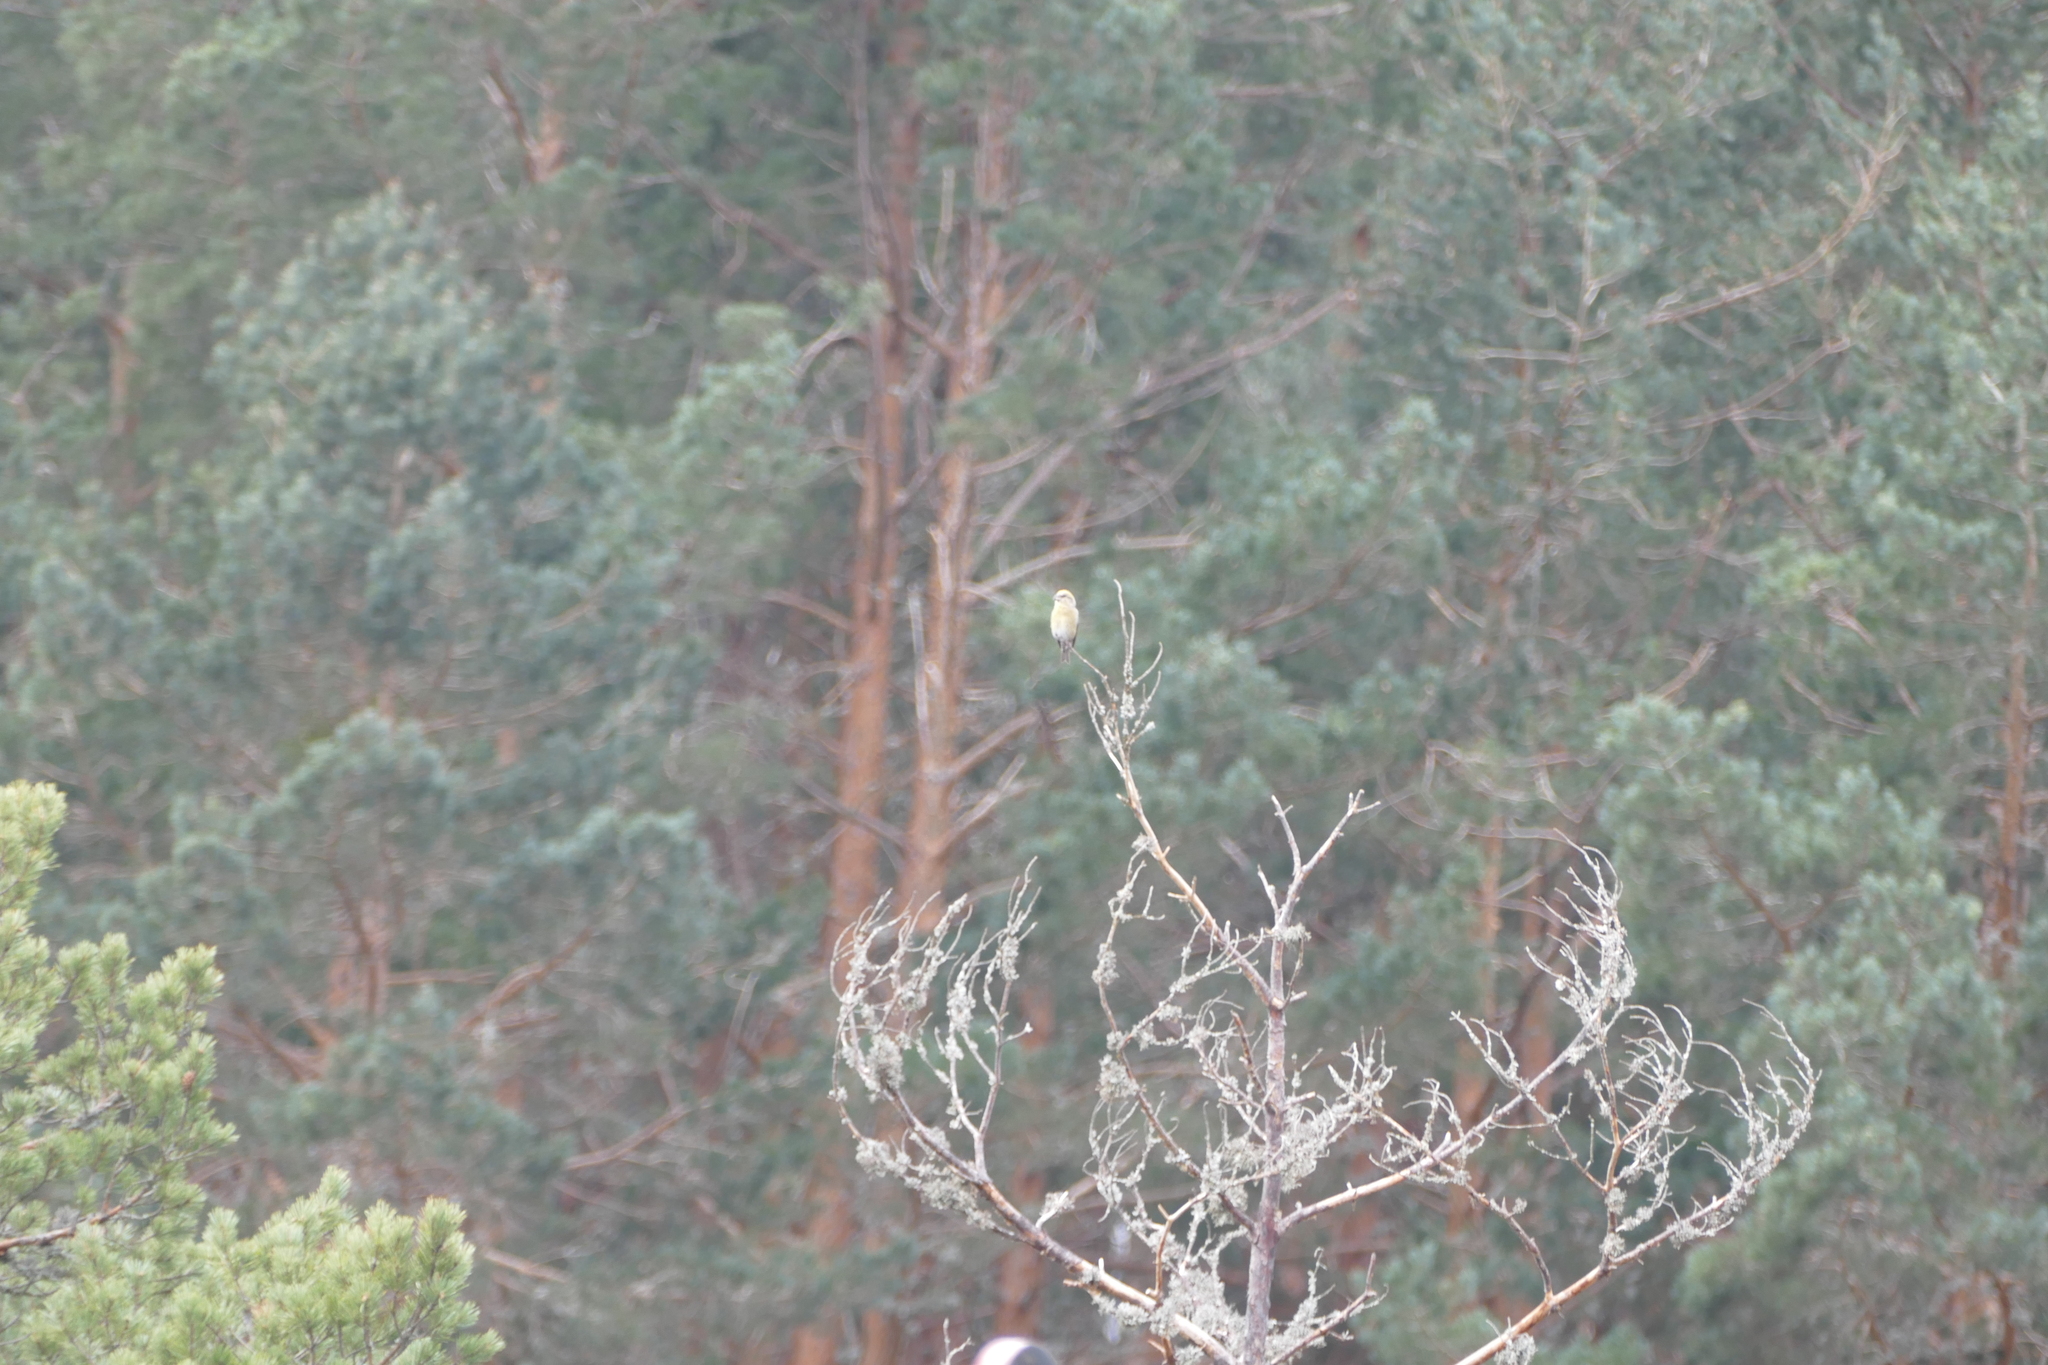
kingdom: Animalia
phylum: Chordata
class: Aves
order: Passeriformes
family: Fringillidae
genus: Loxia
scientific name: Loxia curvirostra
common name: Red crossbill
